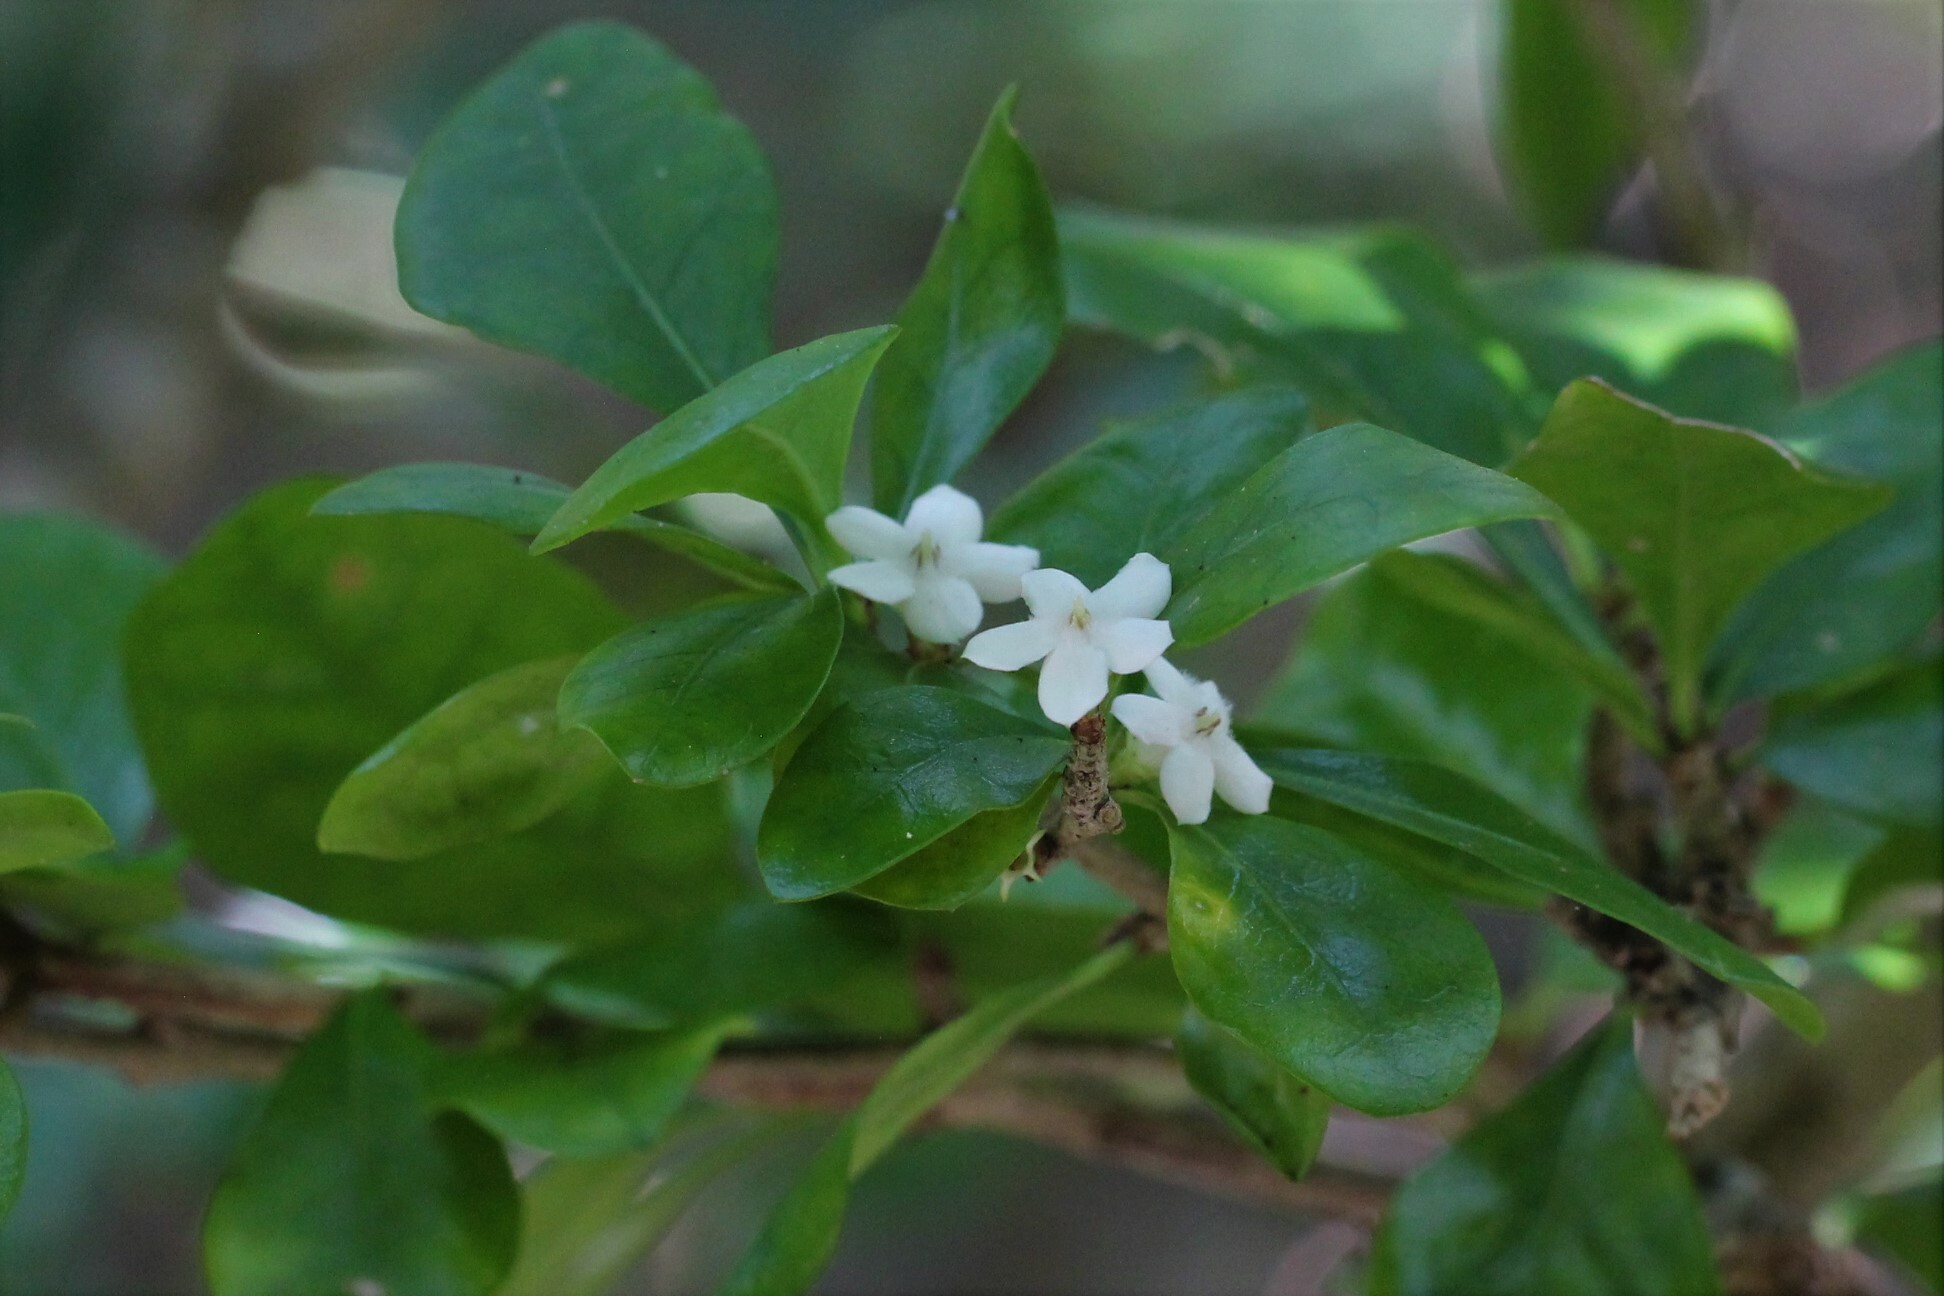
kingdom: Plantae
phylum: Tracheophyta
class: Magnoliopsida
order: Gentianales
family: Rubiaceae
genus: Randia
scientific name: Randia aculeata
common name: Inkberry
